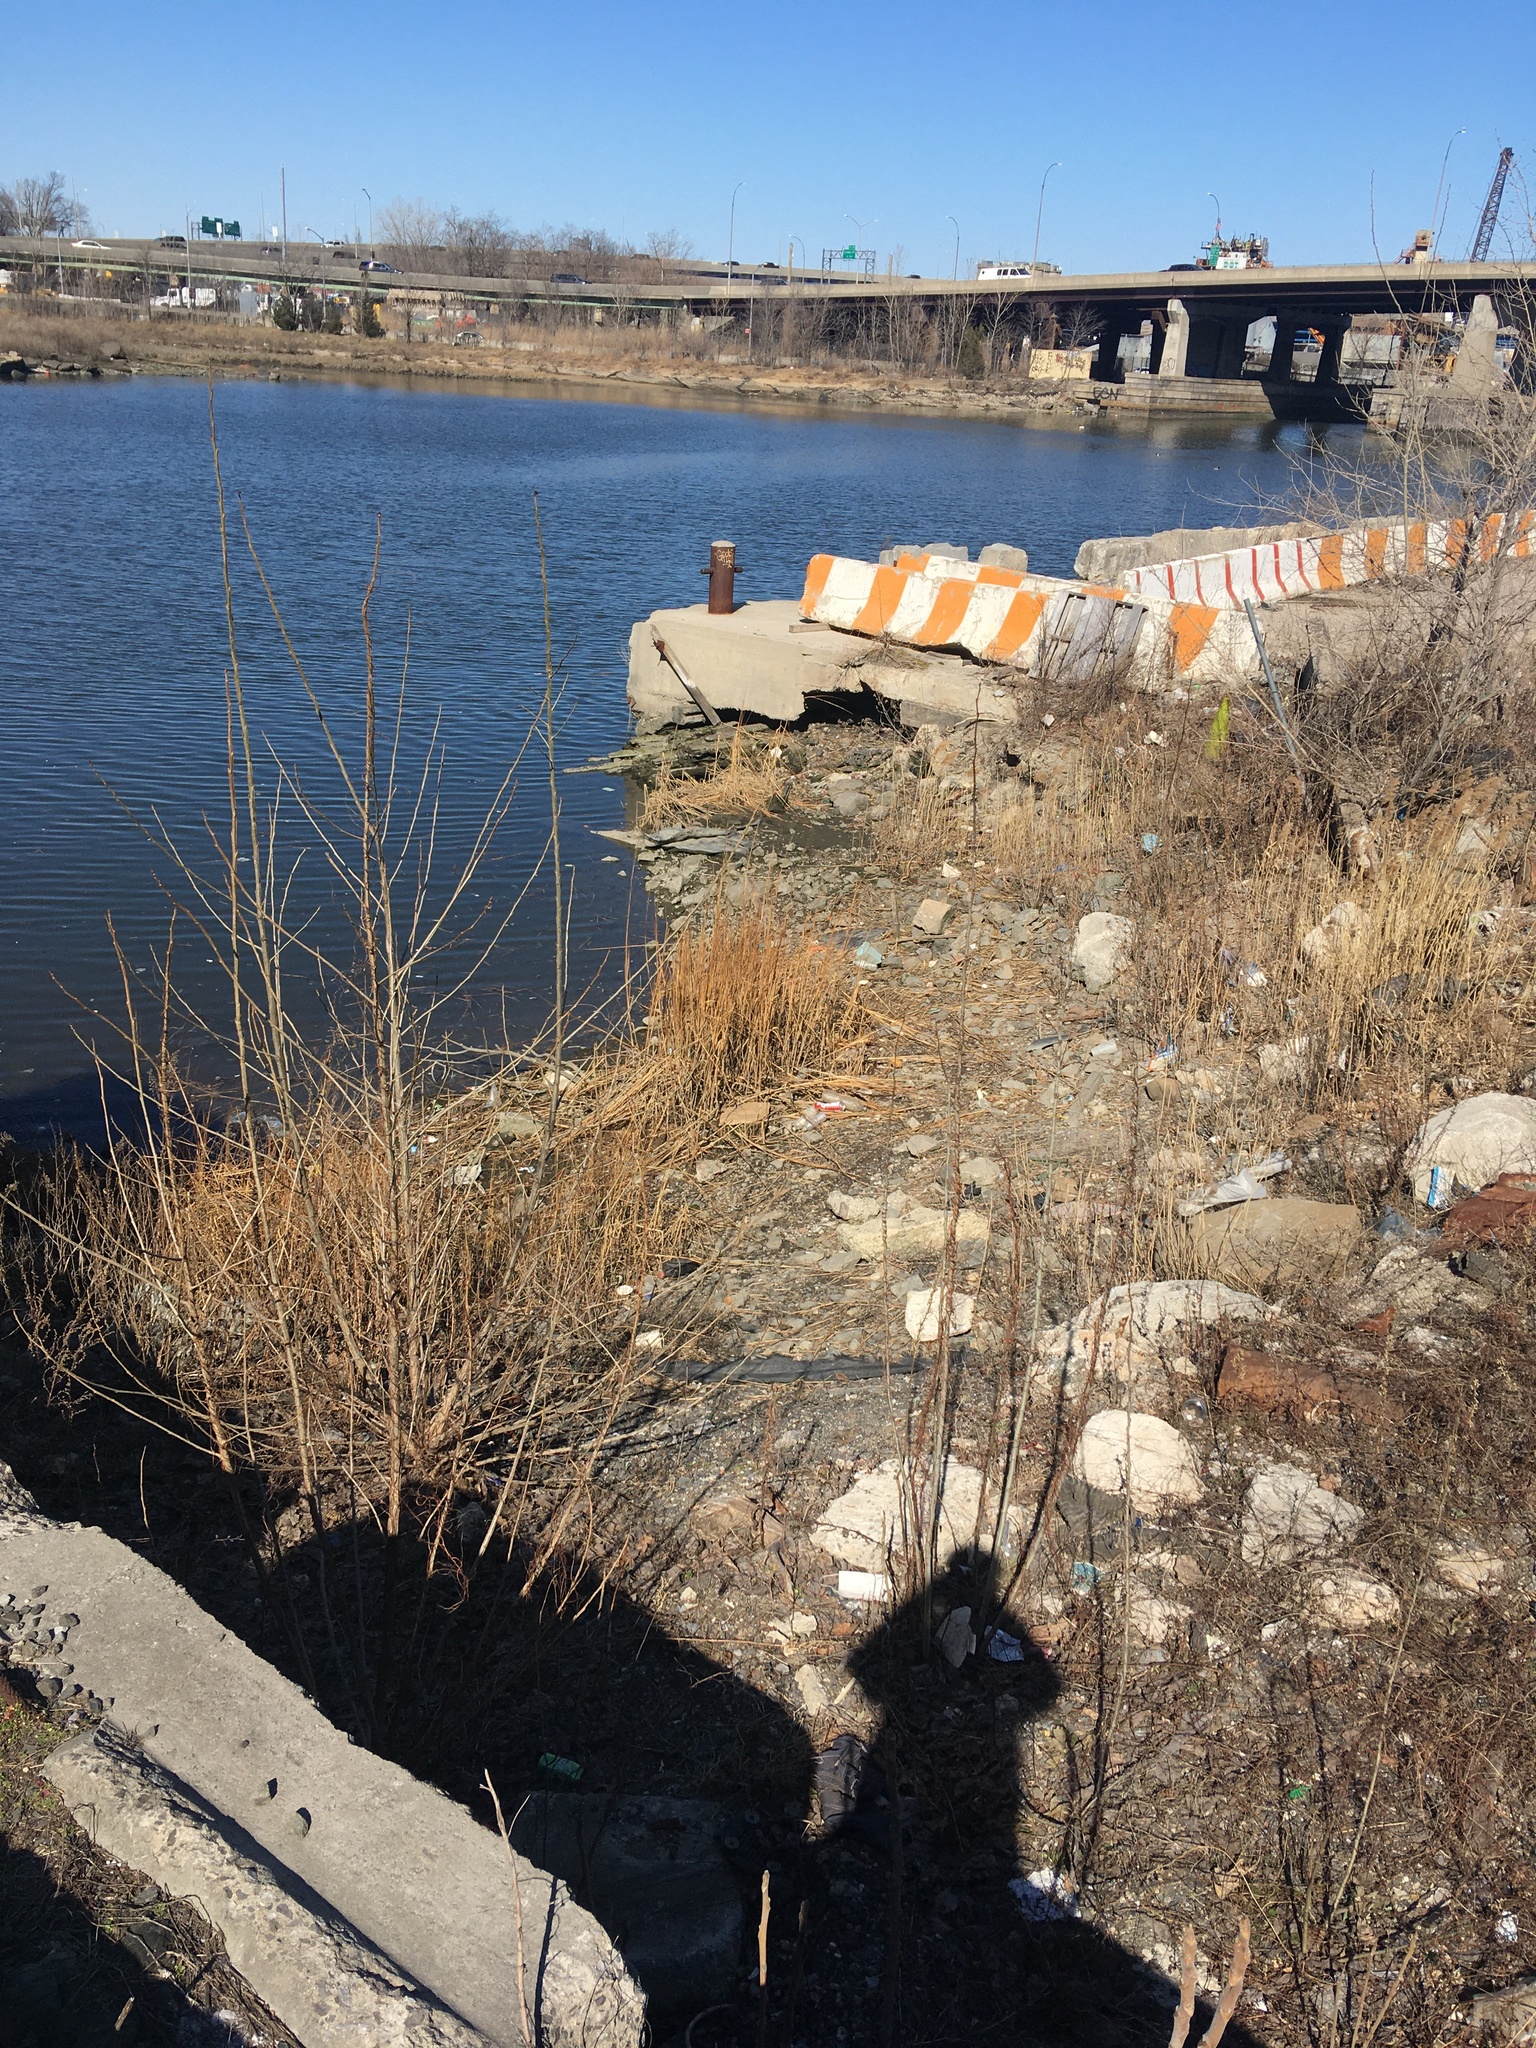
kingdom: Plantae
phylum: Tracheophyta
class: Liliopsida
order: Poales
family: Poaceae
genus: Sporobolus
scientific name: Sporobolus alterniflorus
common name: Atlantic cordgrass
